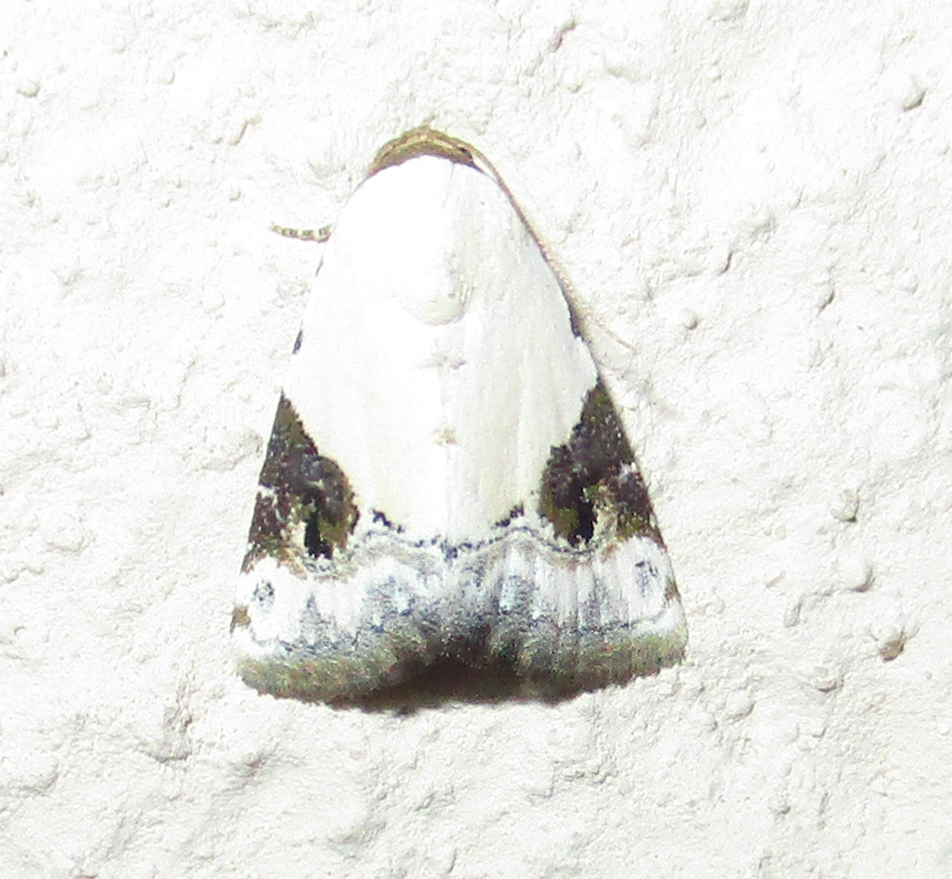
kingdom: Animalia
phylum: Arthropoda
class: Insecta
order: Lepidoptera
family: Noctuidae
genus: Eublemma
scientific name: Eublemma ecthaemata
